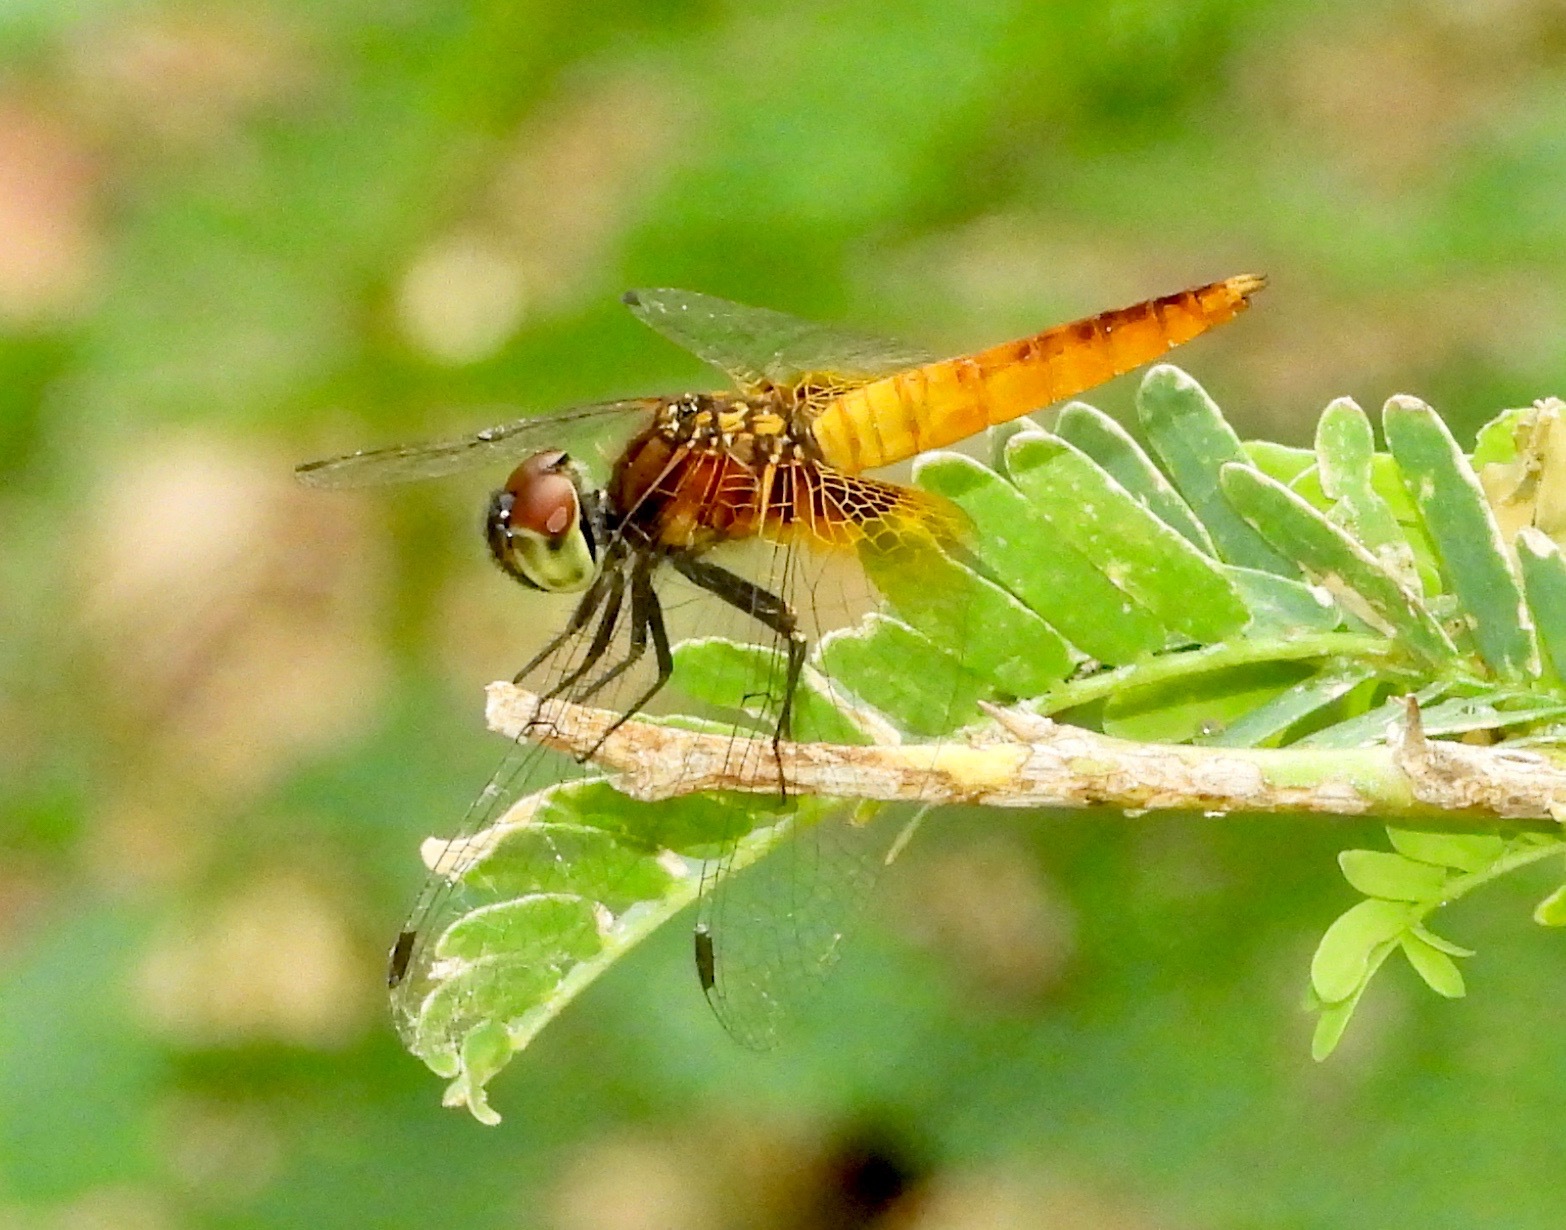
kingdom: Animalia
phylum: Arthropoda
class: Insecta
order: Odonata
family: Libellulidae
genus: Aethriamanta
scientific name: Aethriamanta brevipennis
